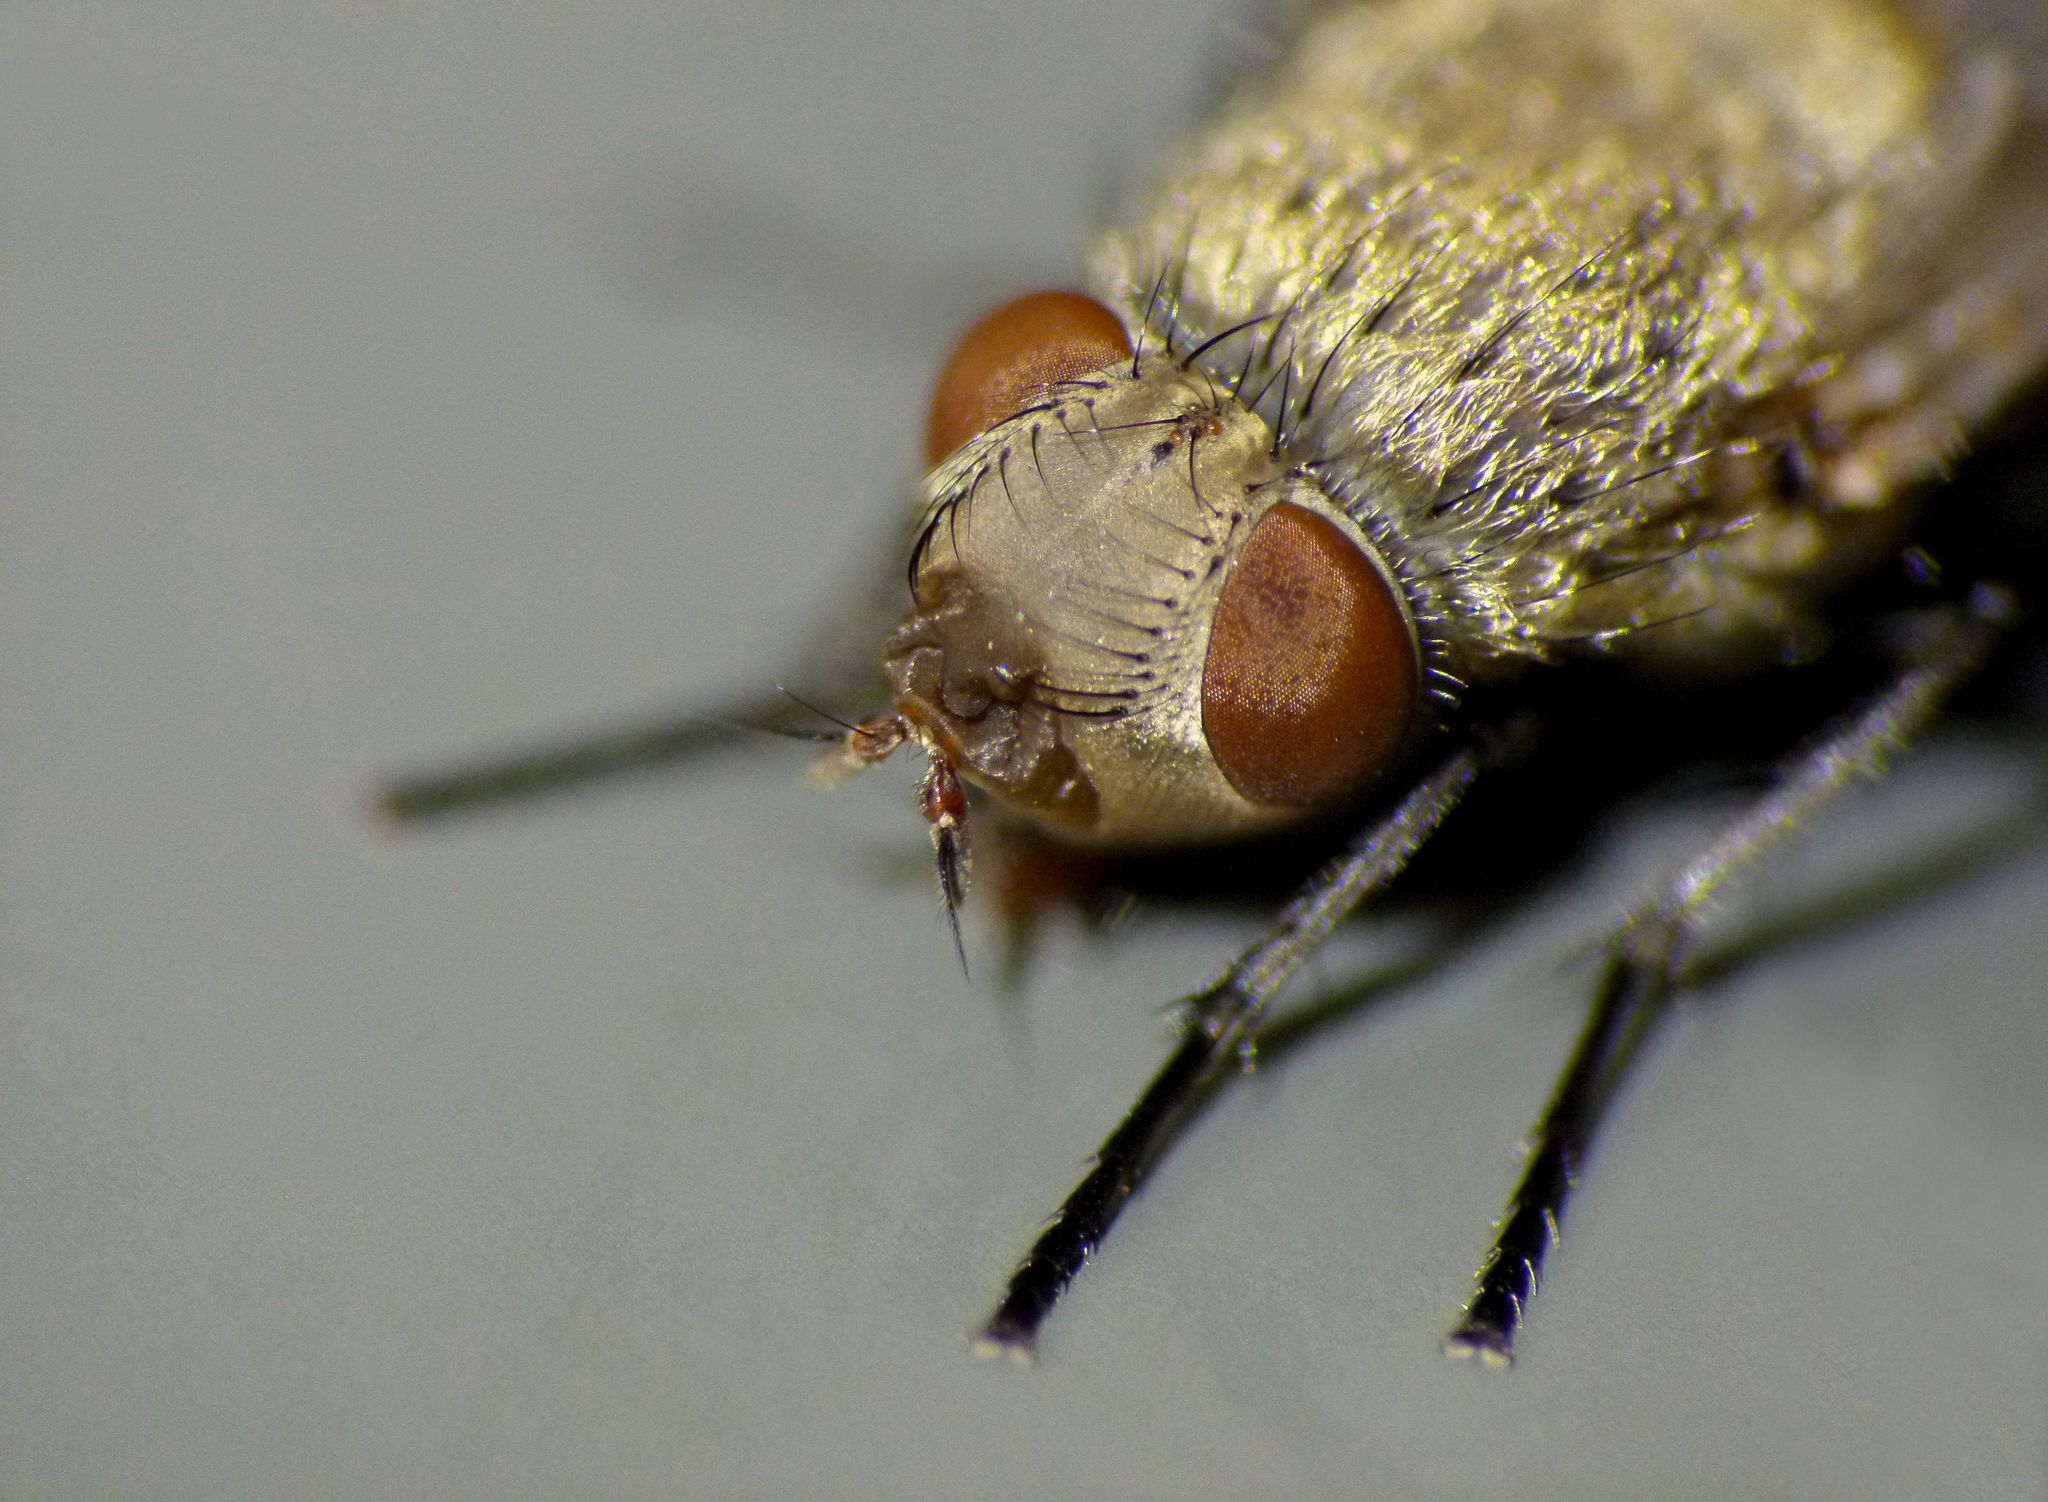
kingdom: Animalia
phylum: Arthropoda
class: Insecta
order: Diptera
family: Polleniidae
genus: Pollenia
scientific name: Pollenia pediculata
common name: Tufted clusterfly
